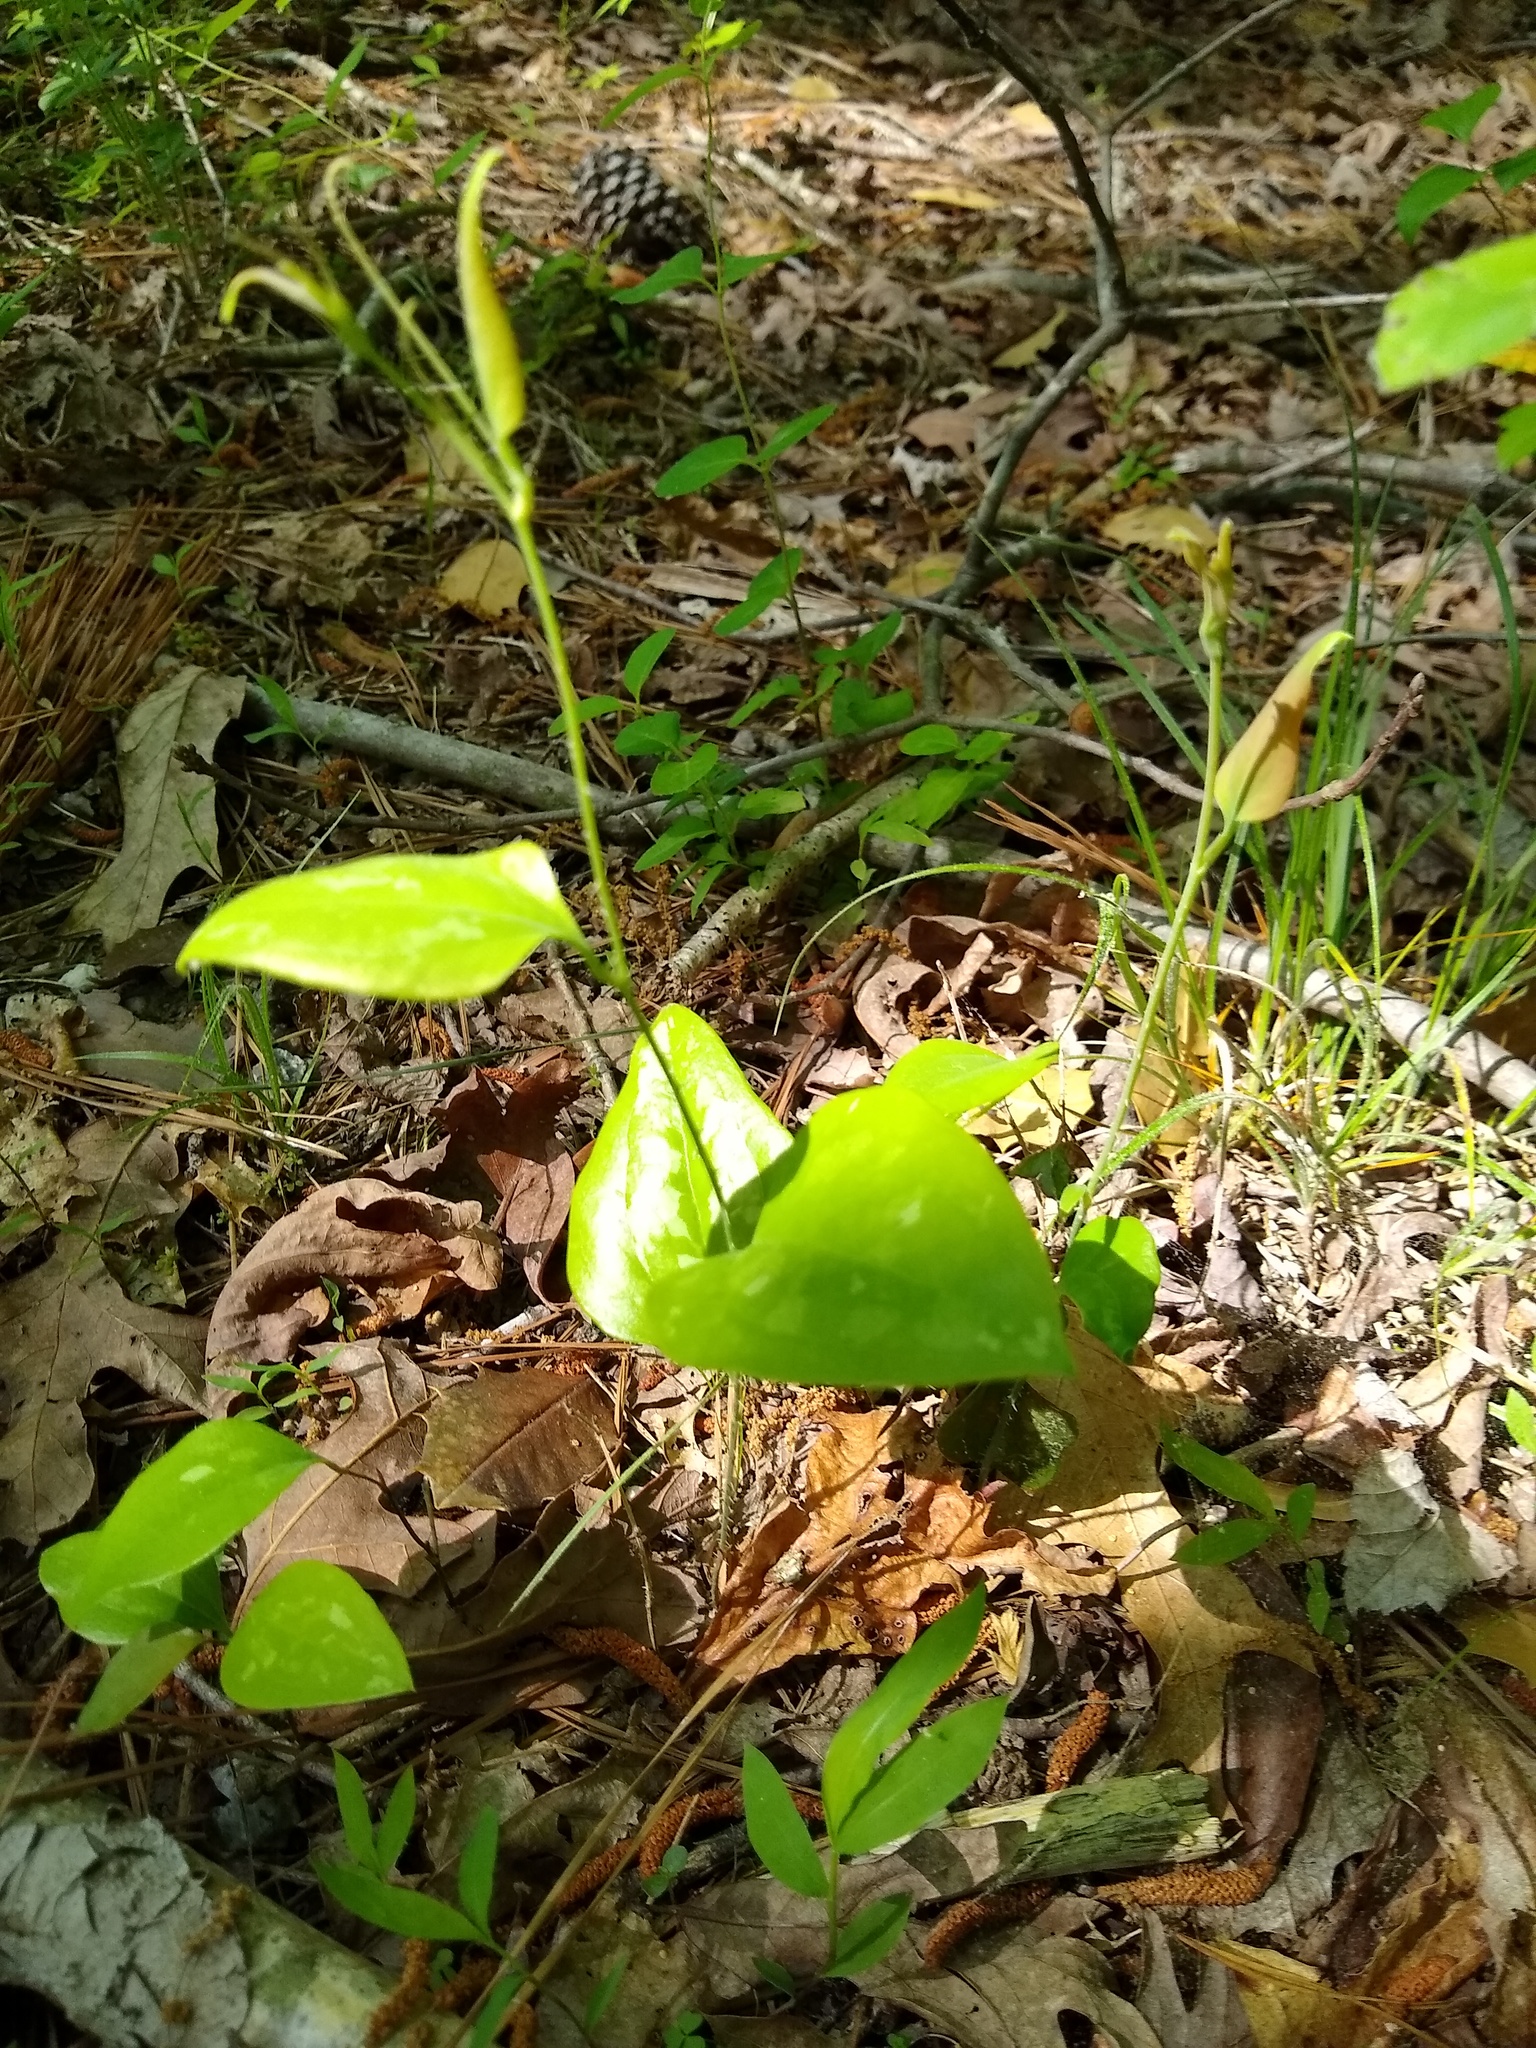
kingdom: Plantae
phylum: Tracheophyta
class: Liliopsida
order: Liliales
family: Smilacaceae
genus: Smilax
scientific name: Smilax glauca
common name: Cat greenbrier
